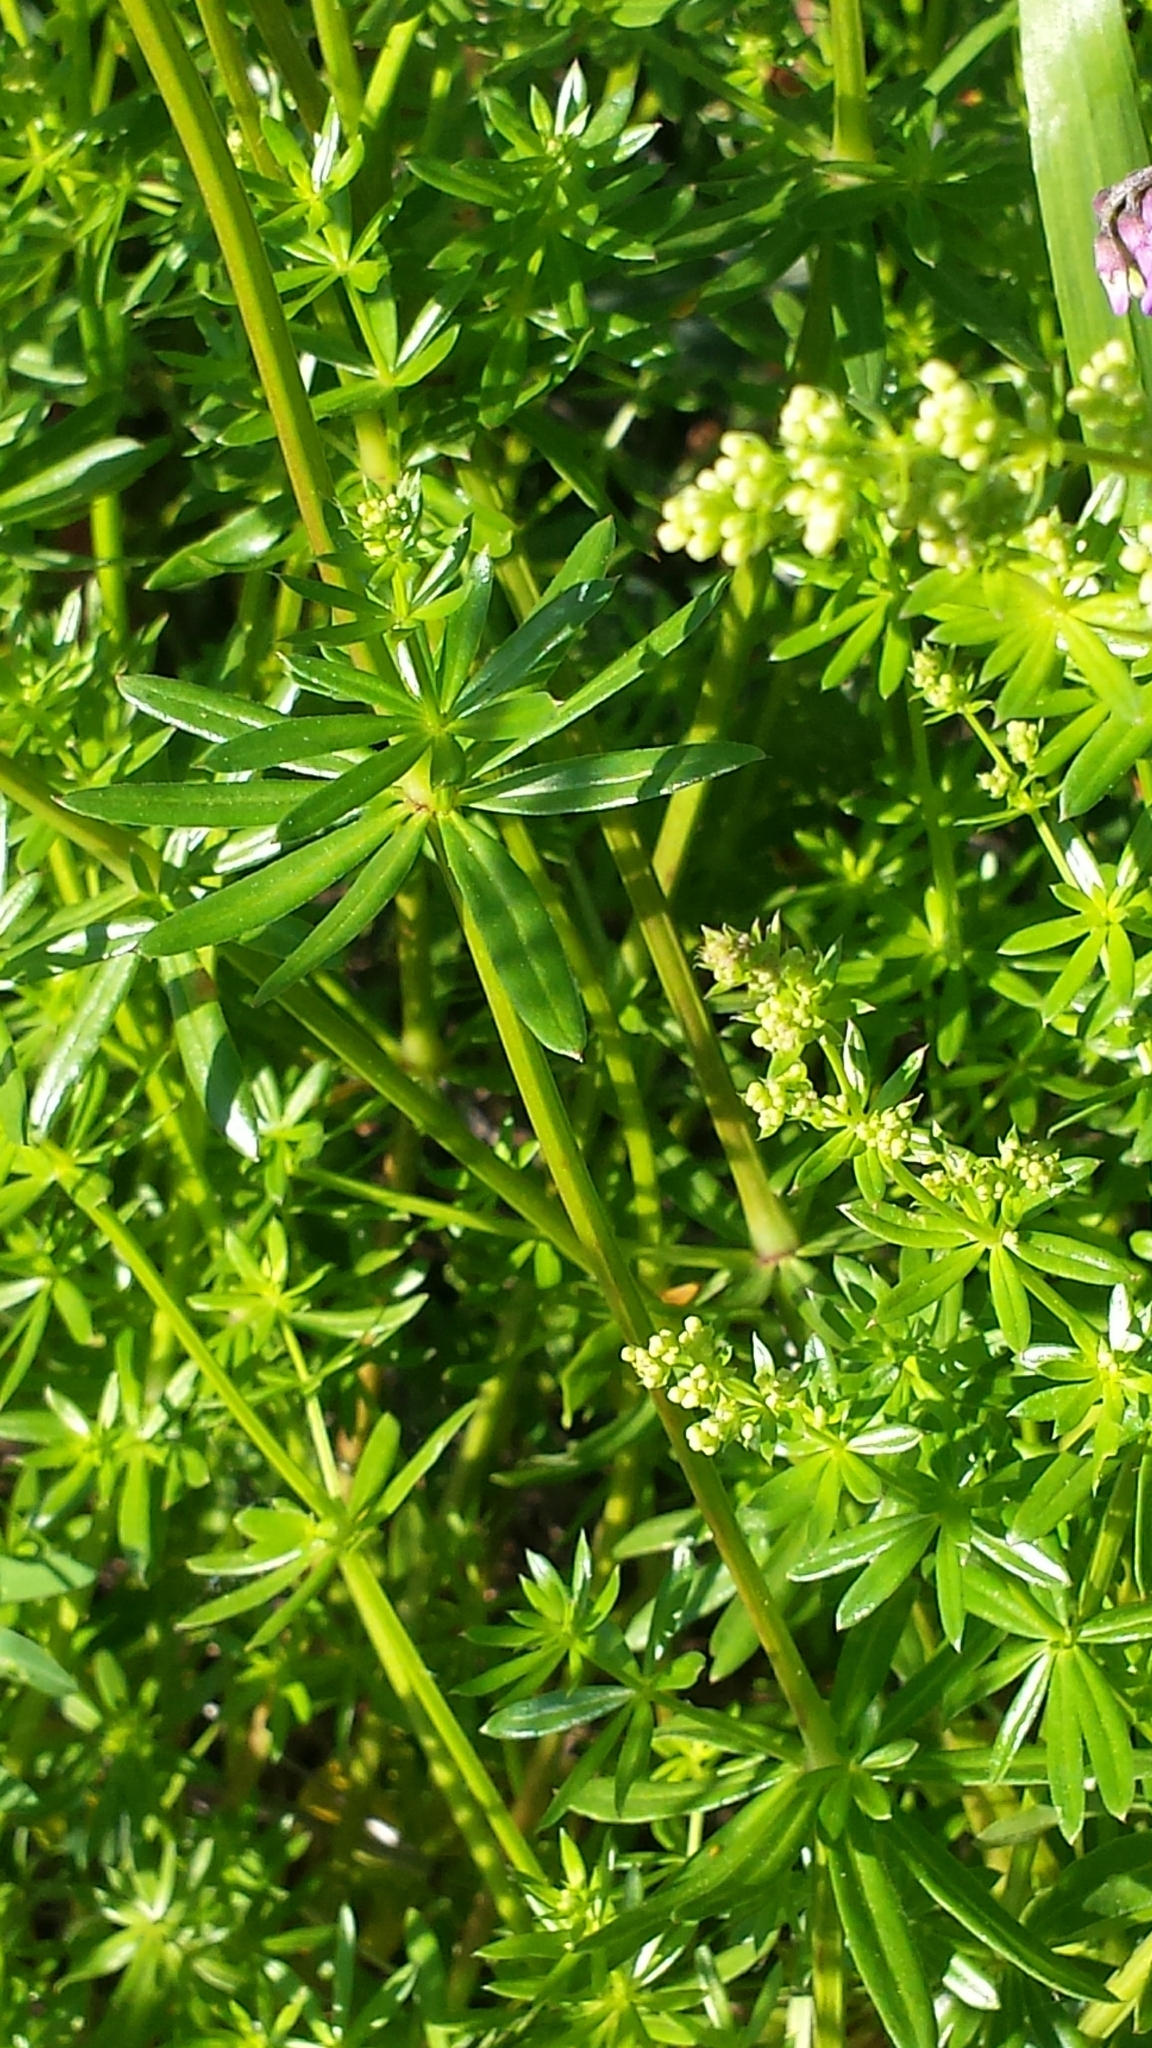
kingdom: Plantae
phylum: Tracheophyta
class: Magnoliopsida
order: Gentianales
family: Rubiaceae
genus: Galium
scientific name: Galium mollugo
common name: Hedge bedstraw
